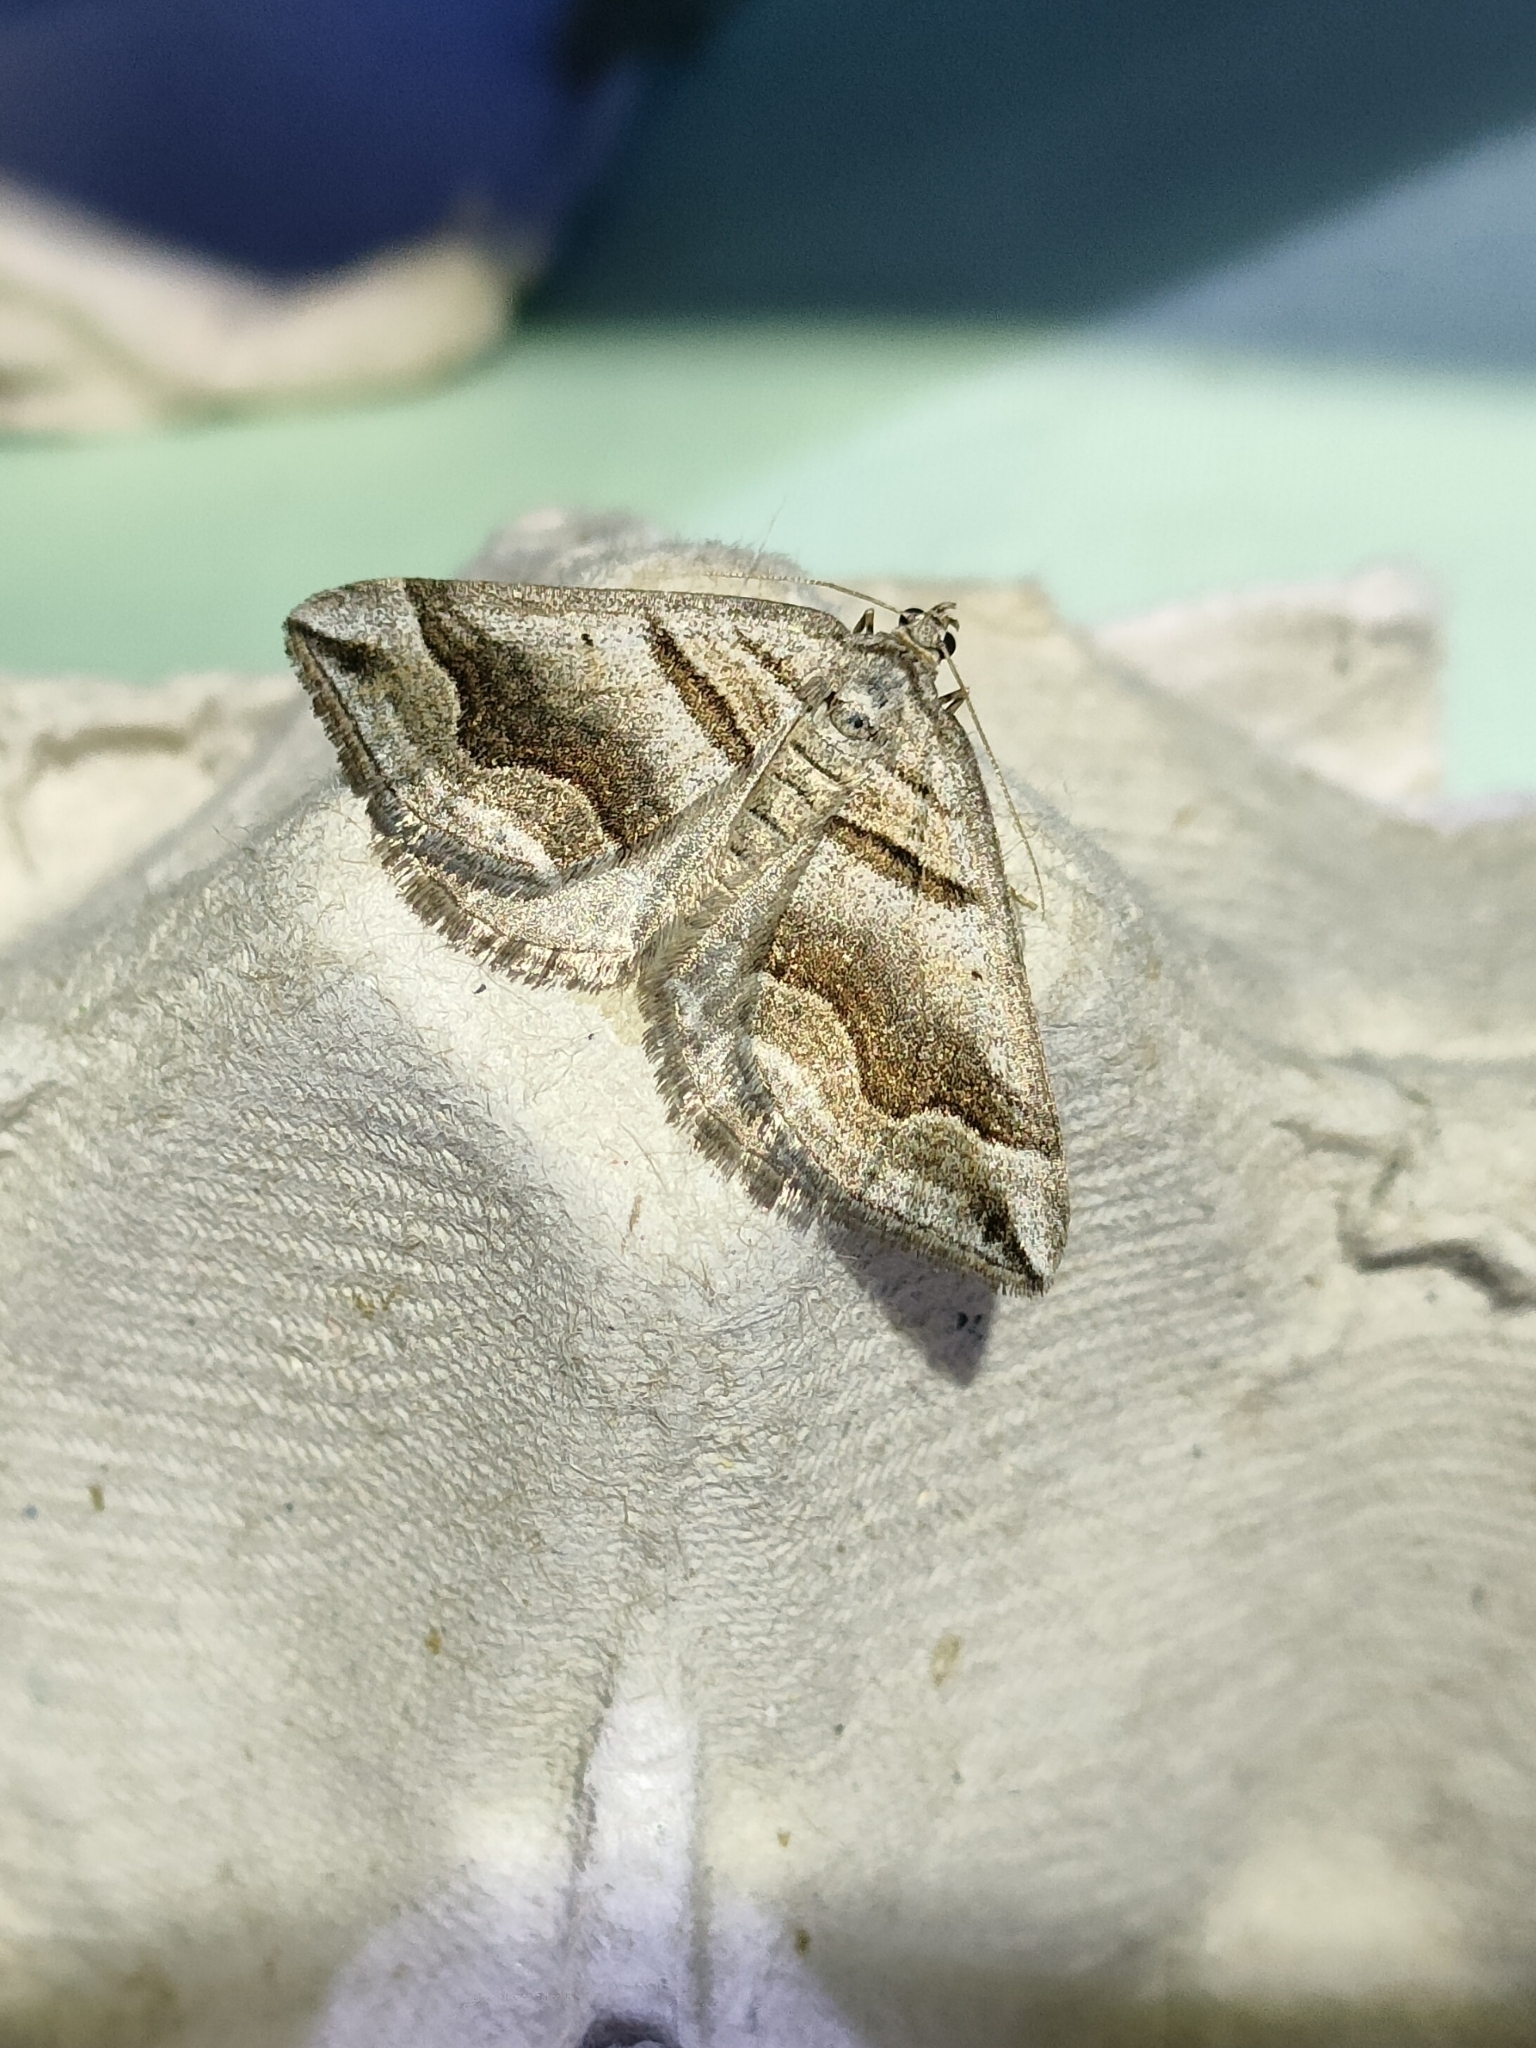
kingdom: Animalia
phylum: Arthropoda
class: Insecta
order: Lepidoptera
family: Geometridae
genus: Scotopteryx
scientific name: Scotopteryx peribolata
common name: Spanish carpet
